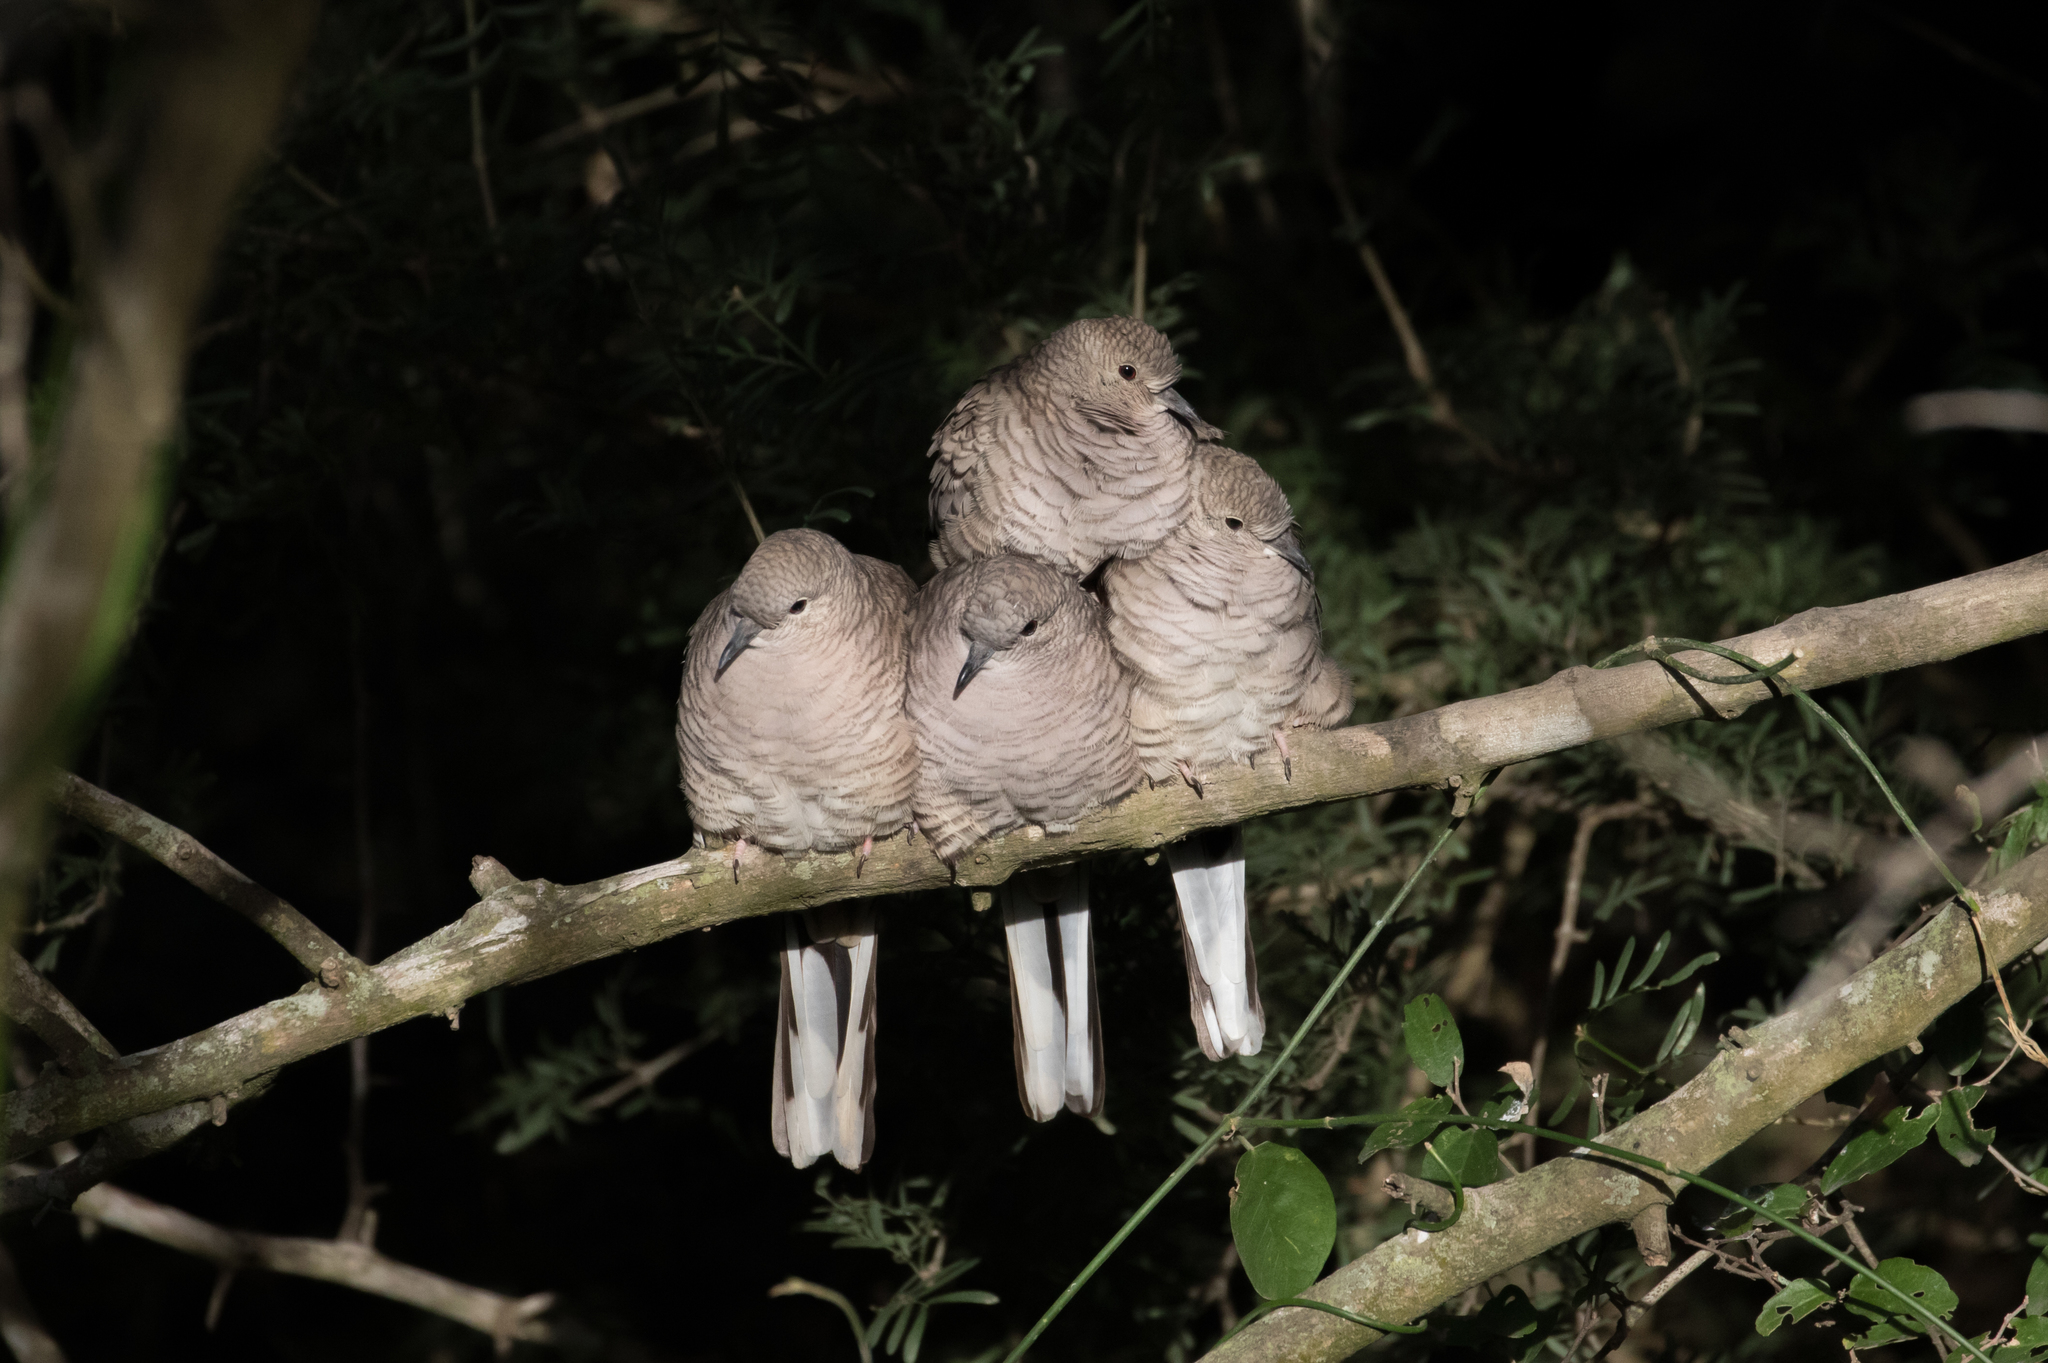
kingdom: Animalia
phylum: Chordata
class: Aves
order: Columbiformes
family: Columbidae
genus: Columbina
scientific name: Columbina inca
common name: Inca dove
